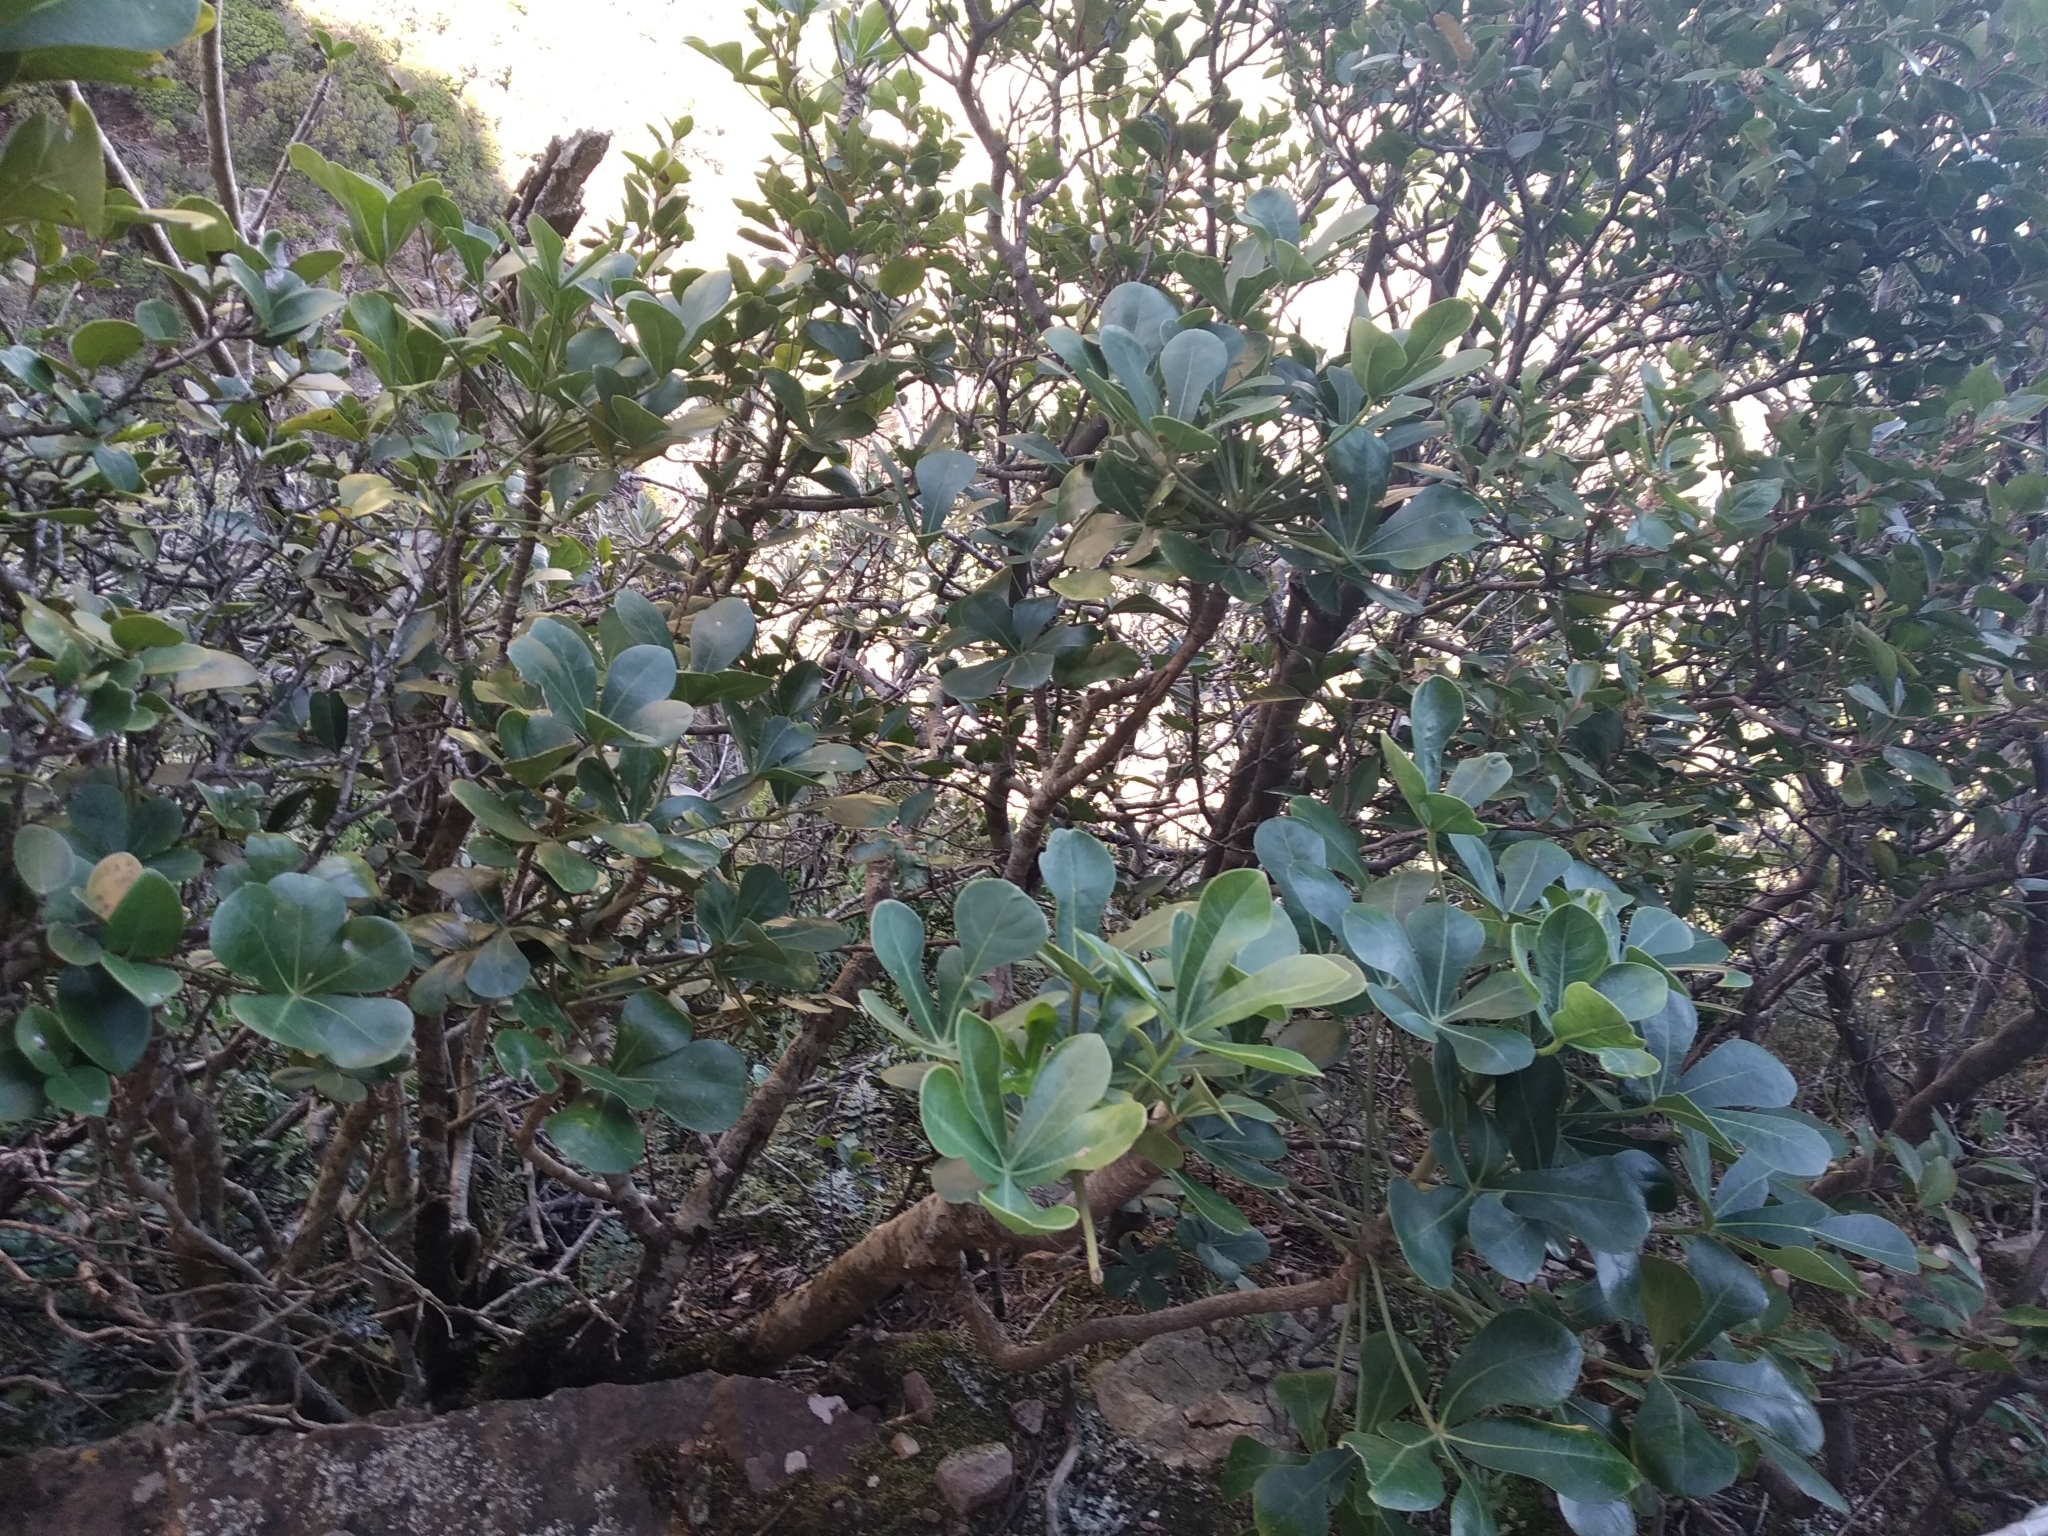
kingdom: Plantae
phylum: Tracheophyta
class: Magnoliopsida
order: Apiales
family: Araliaceae
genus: Cussonia
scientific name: Cussonia thyrsiflora
